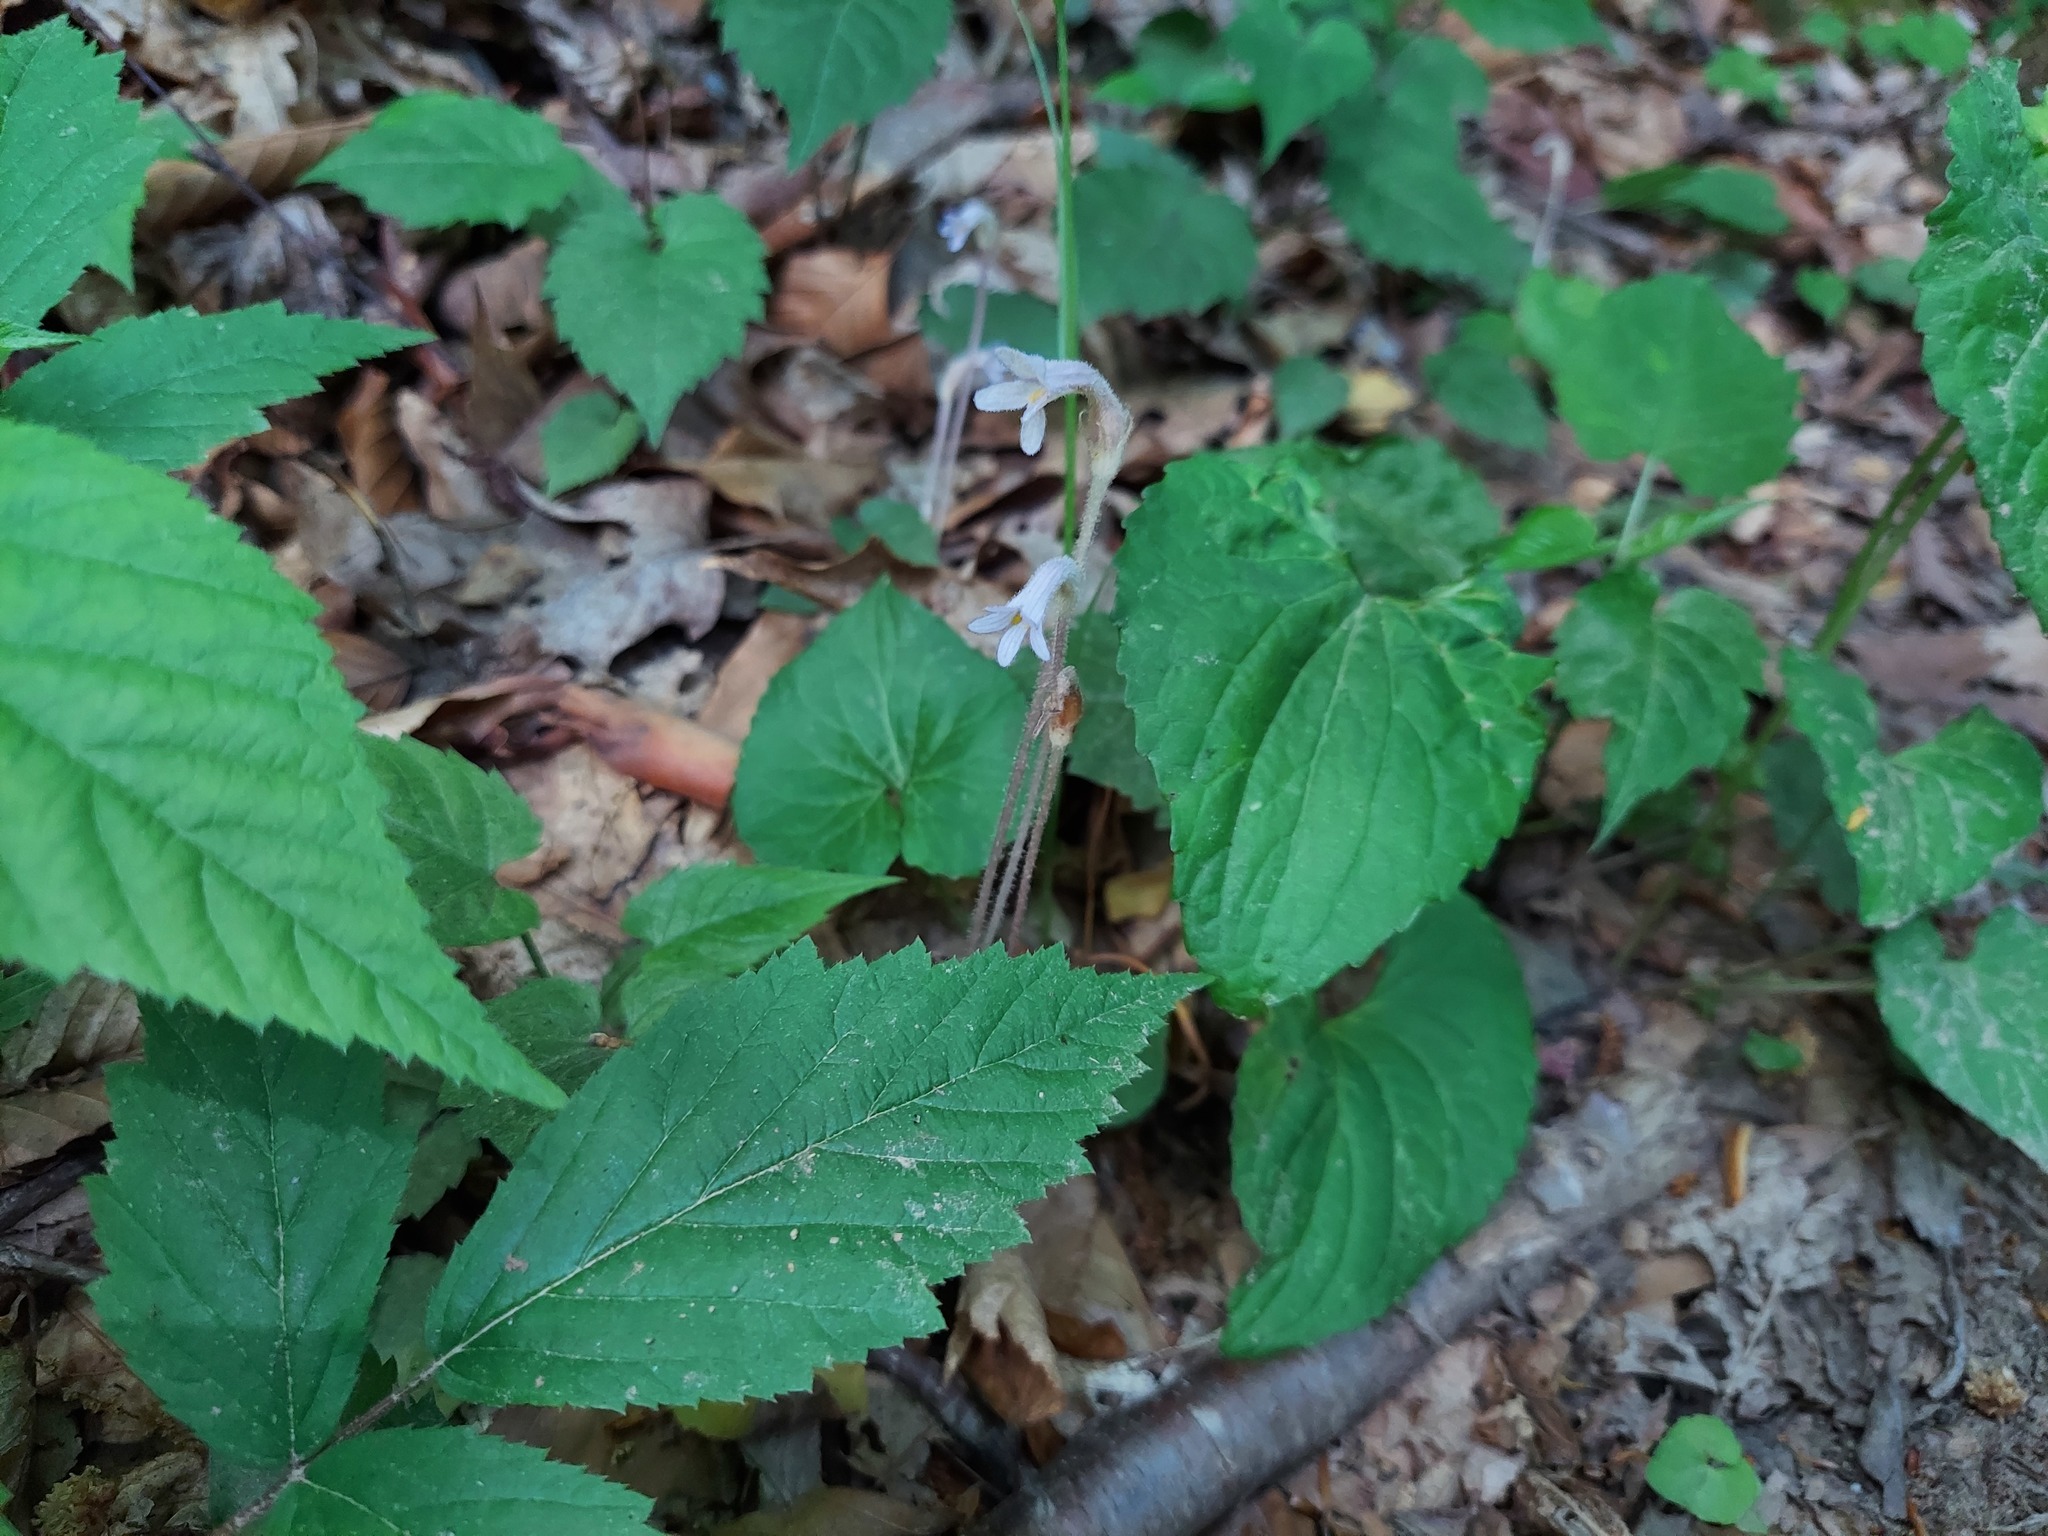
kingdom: Plantae
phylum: Tracheophyta
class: Magnoliopsida
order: Lamiales
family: Orobanchaceae
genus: Aphyllon
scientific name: Aphyllon uniflorum
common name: One-flowered broomrape
